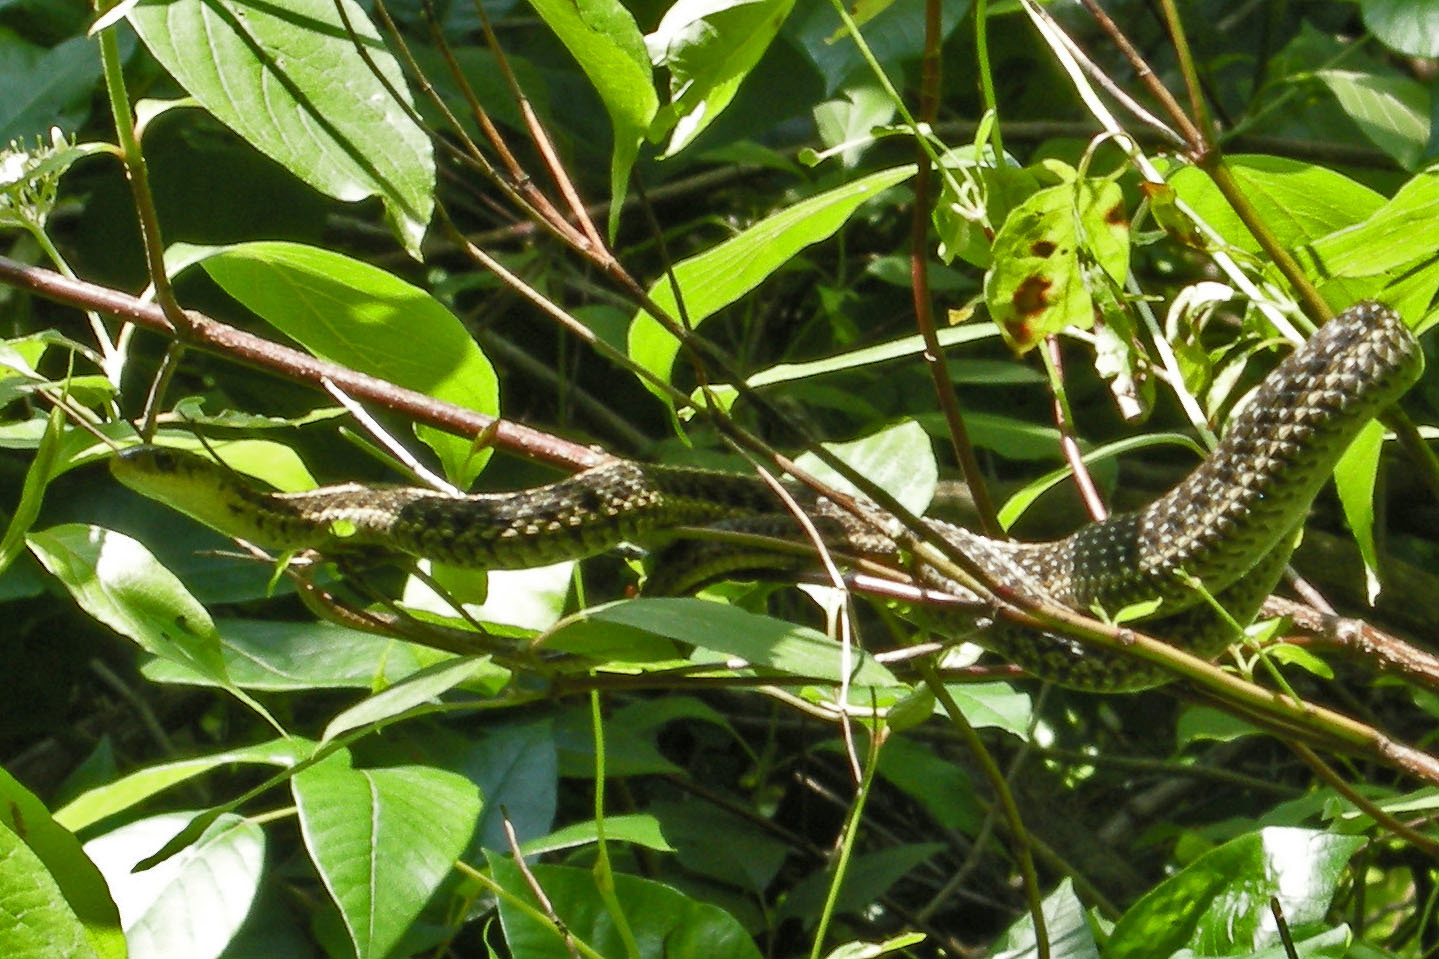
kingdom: Animalia
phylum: Chordata
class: Squamata
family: Colubridae
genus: Thamnophis
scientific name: Thamnophis sirtalis
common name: Common garter snake
